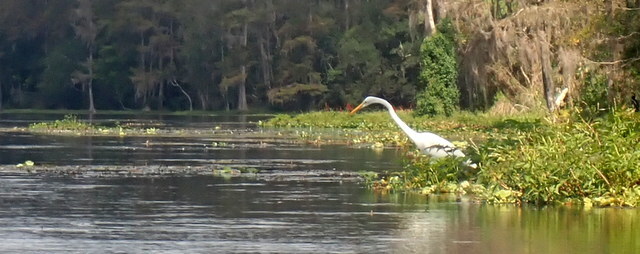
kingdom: Animalia
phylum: Chordata
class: Aves
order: Pelecaniformes
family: Ardeidae
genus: Ardea
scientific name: Ardea alba
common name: Great egret
